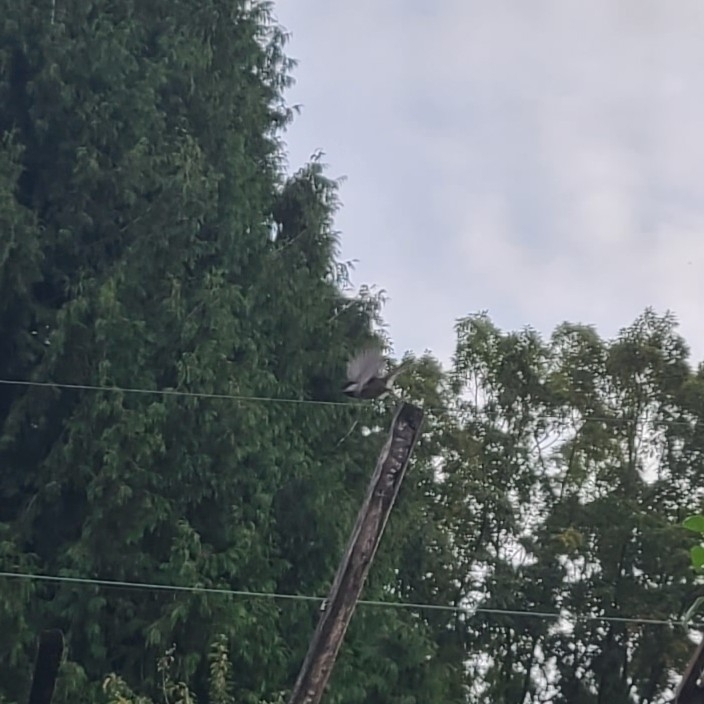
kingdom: Animalia
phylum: Chordata
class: Aves
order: Passeriformes
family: Paridae
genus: Poecile
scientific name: Poecile atricapillus
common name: Black-capped chickadee
